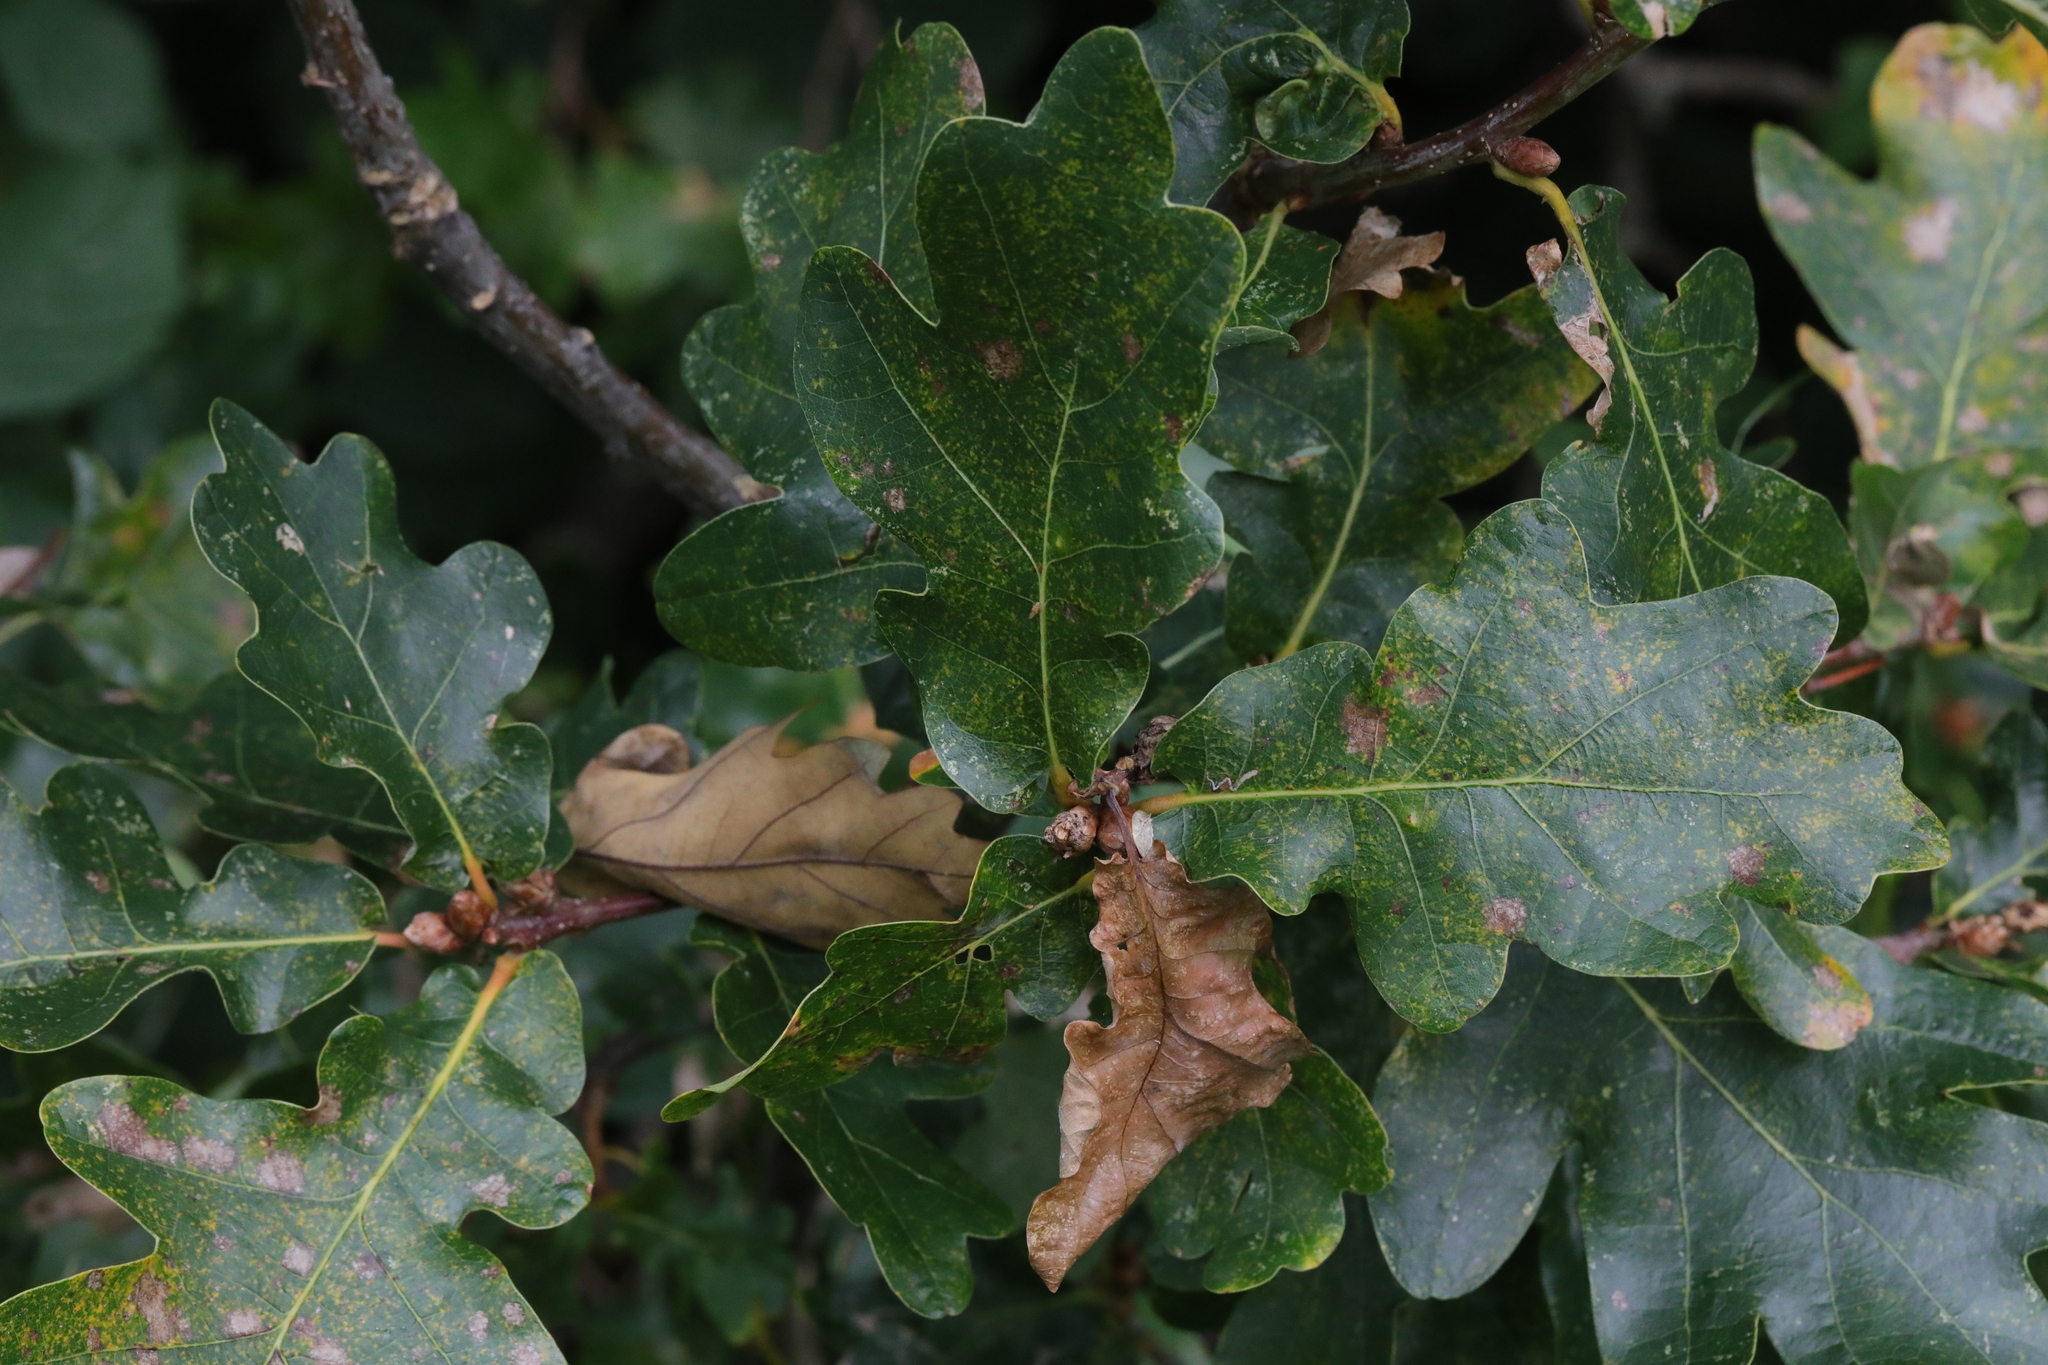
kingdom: Plantae
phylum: Tracheophyta
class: Magnoliopsida
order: Fagales
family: Fagaceae
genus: Quercus
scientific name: Quercus robur
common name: Pedunculate oak
